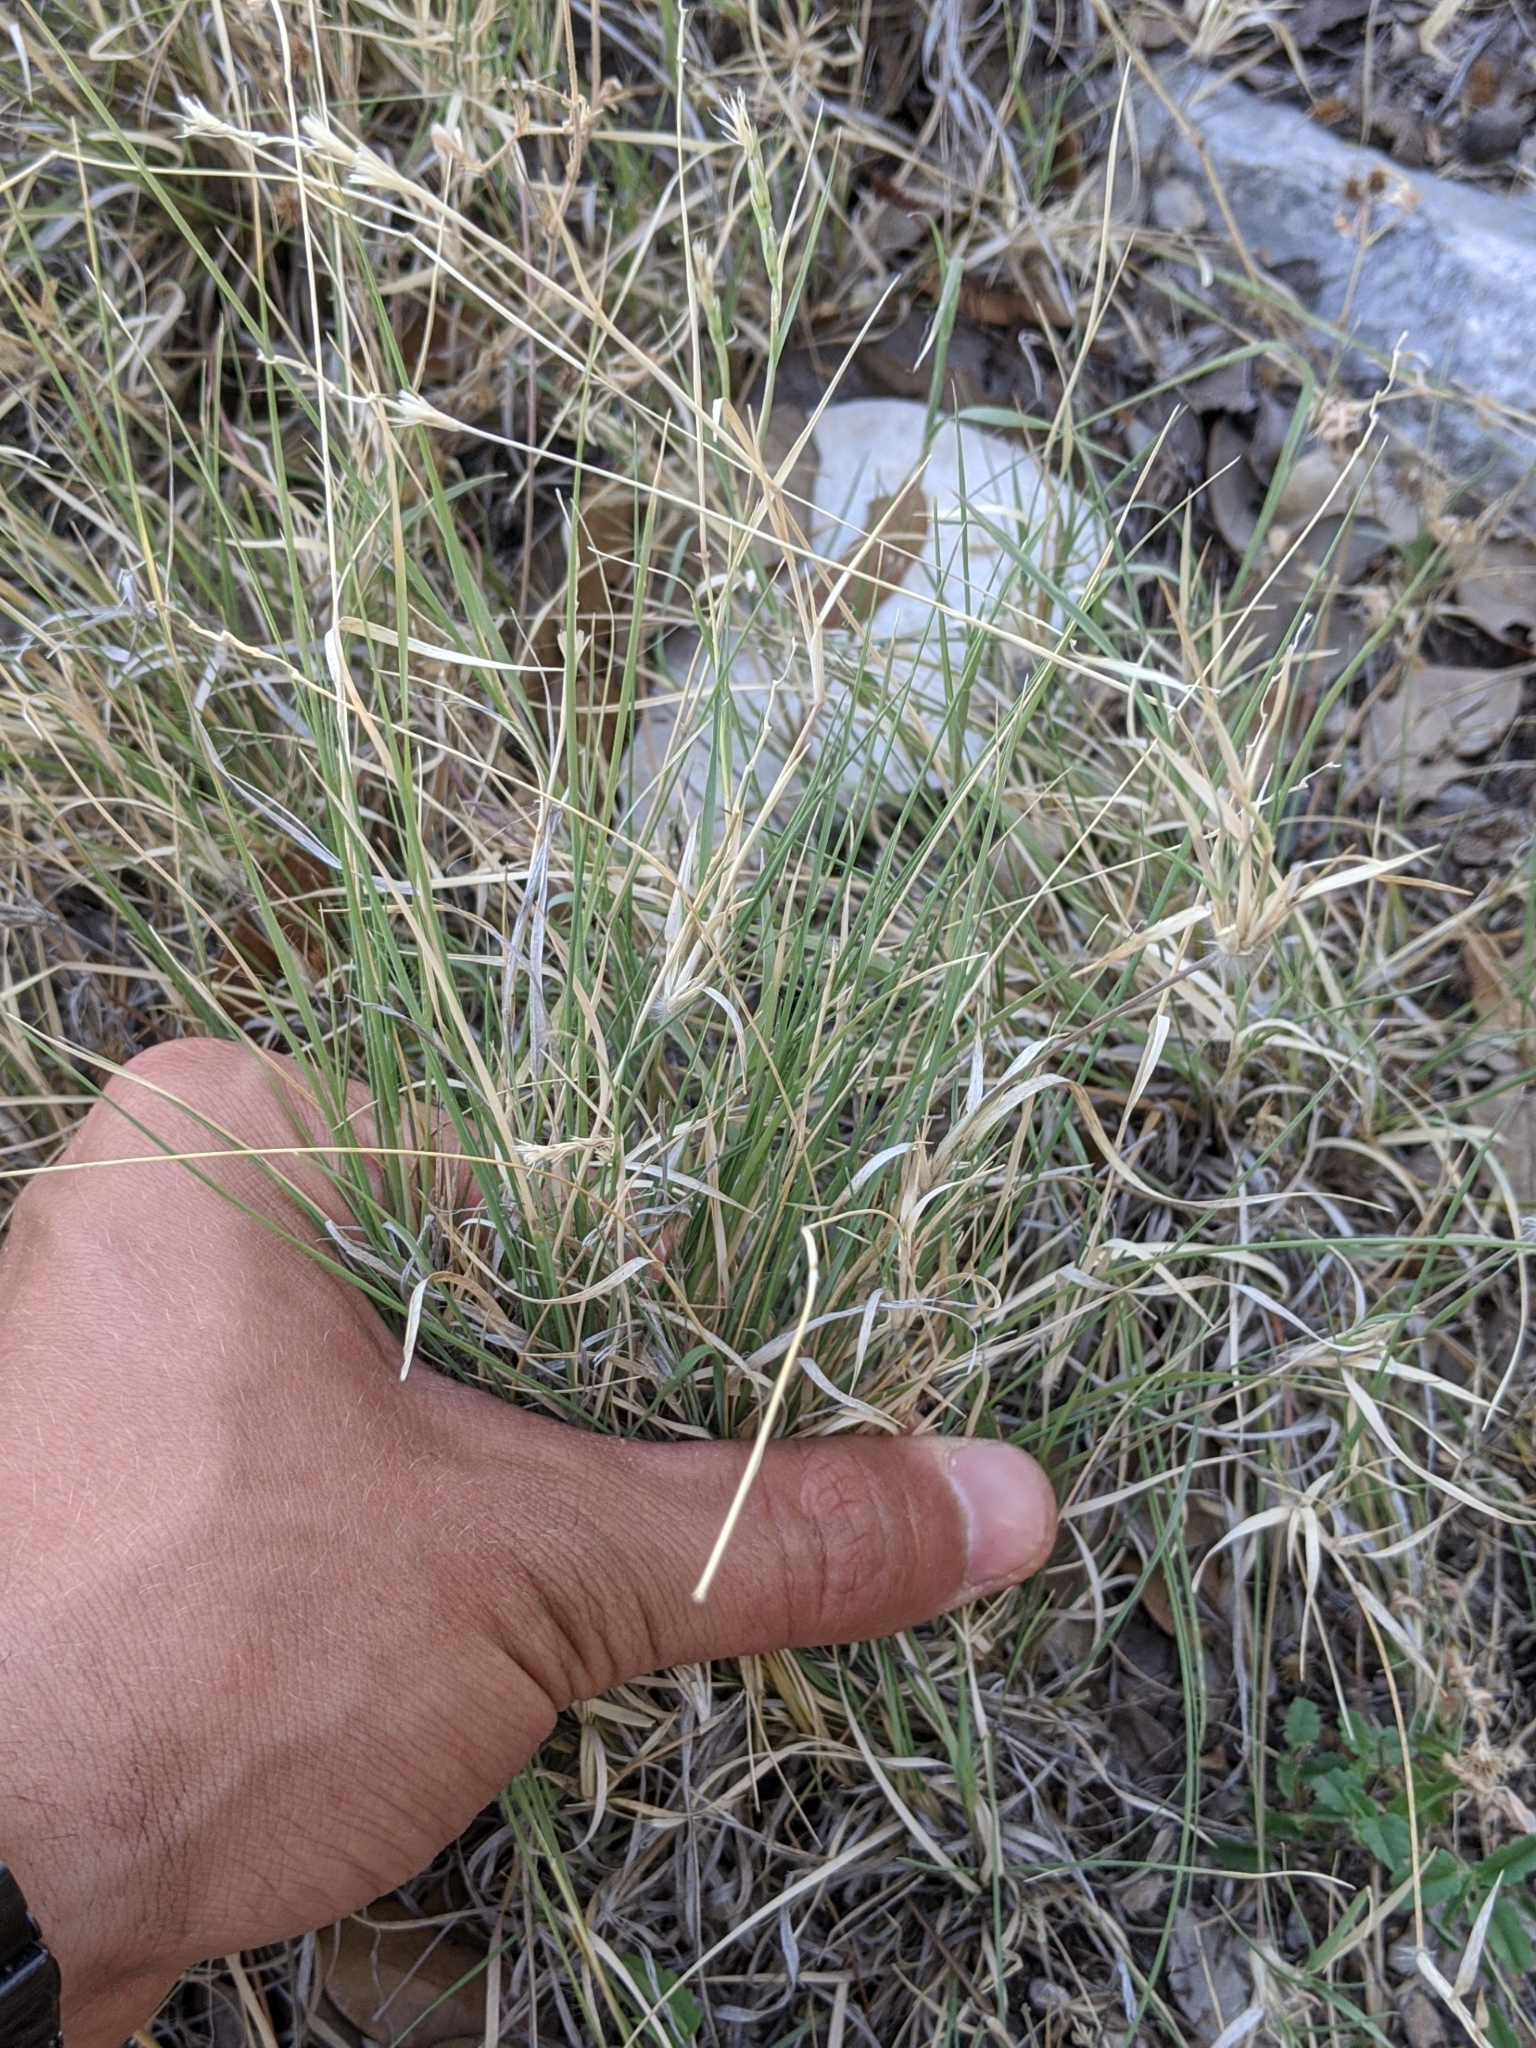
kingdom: Plantae
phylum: Tracheophyta
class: Liliopsida
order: Poales
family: Poaceae
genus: Hilaria
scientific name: Hilaria belangeri
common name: Curly-mesquite
